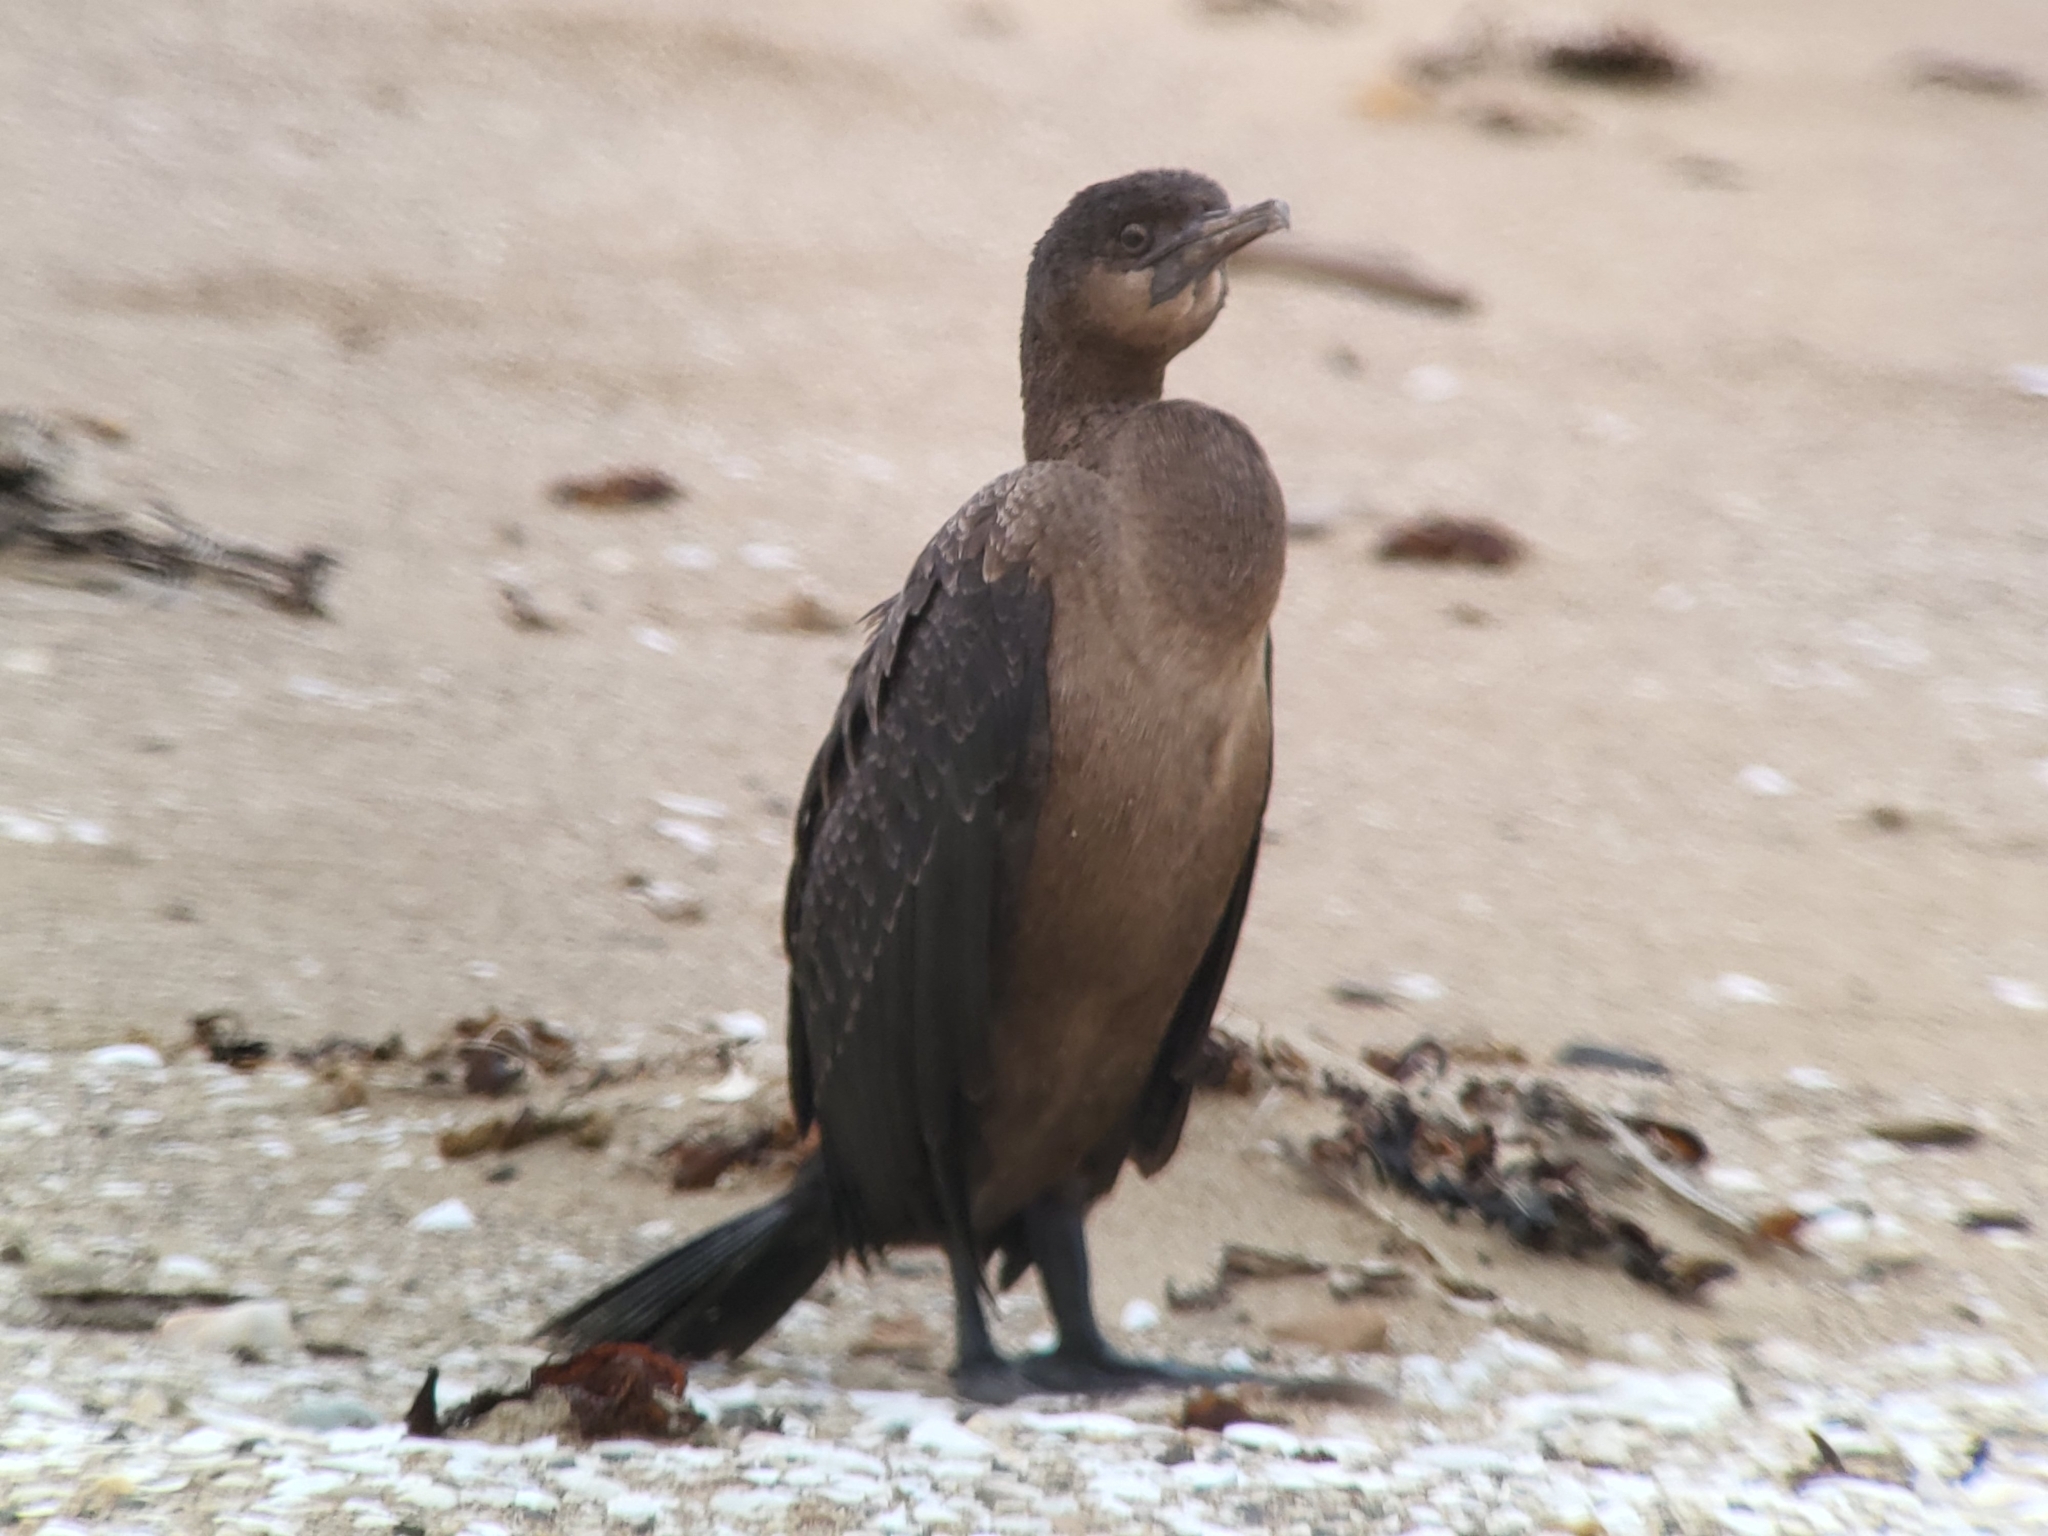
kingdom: Animalia
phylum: Chordata
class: Aves
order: Suliformes
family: Phalacrocoracidae
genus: Urile
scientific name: Urile penicillatus
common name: Brandt's cormorant
